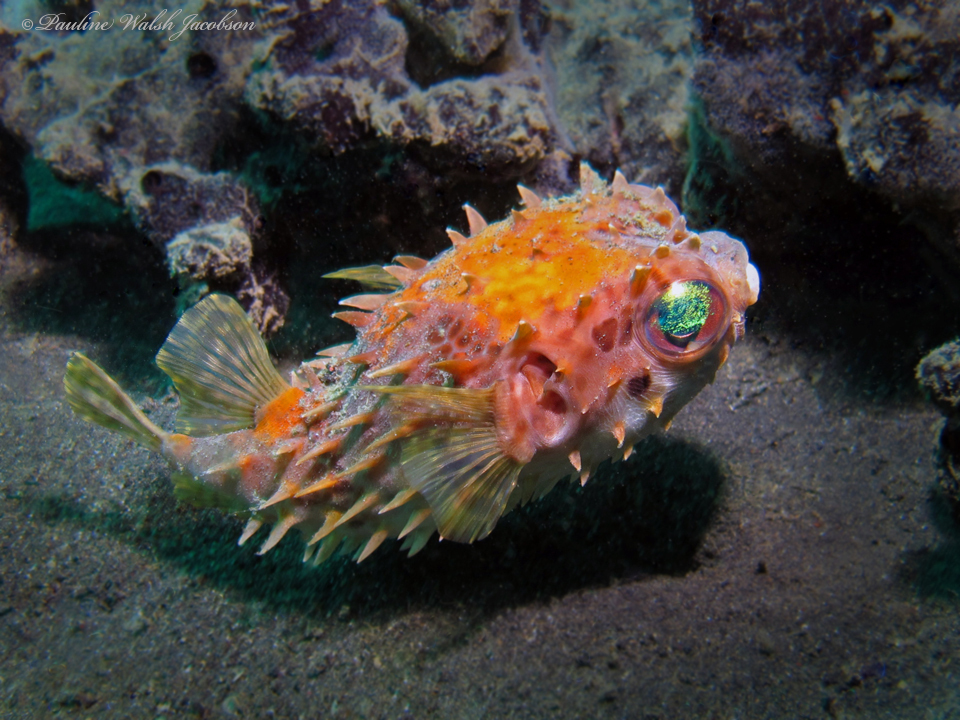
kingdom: Animalia
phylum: Chordata
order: Tetraodontiformes
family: Diodontidae
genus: Cyclichthys
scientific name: Cyclichthys orbicularis
